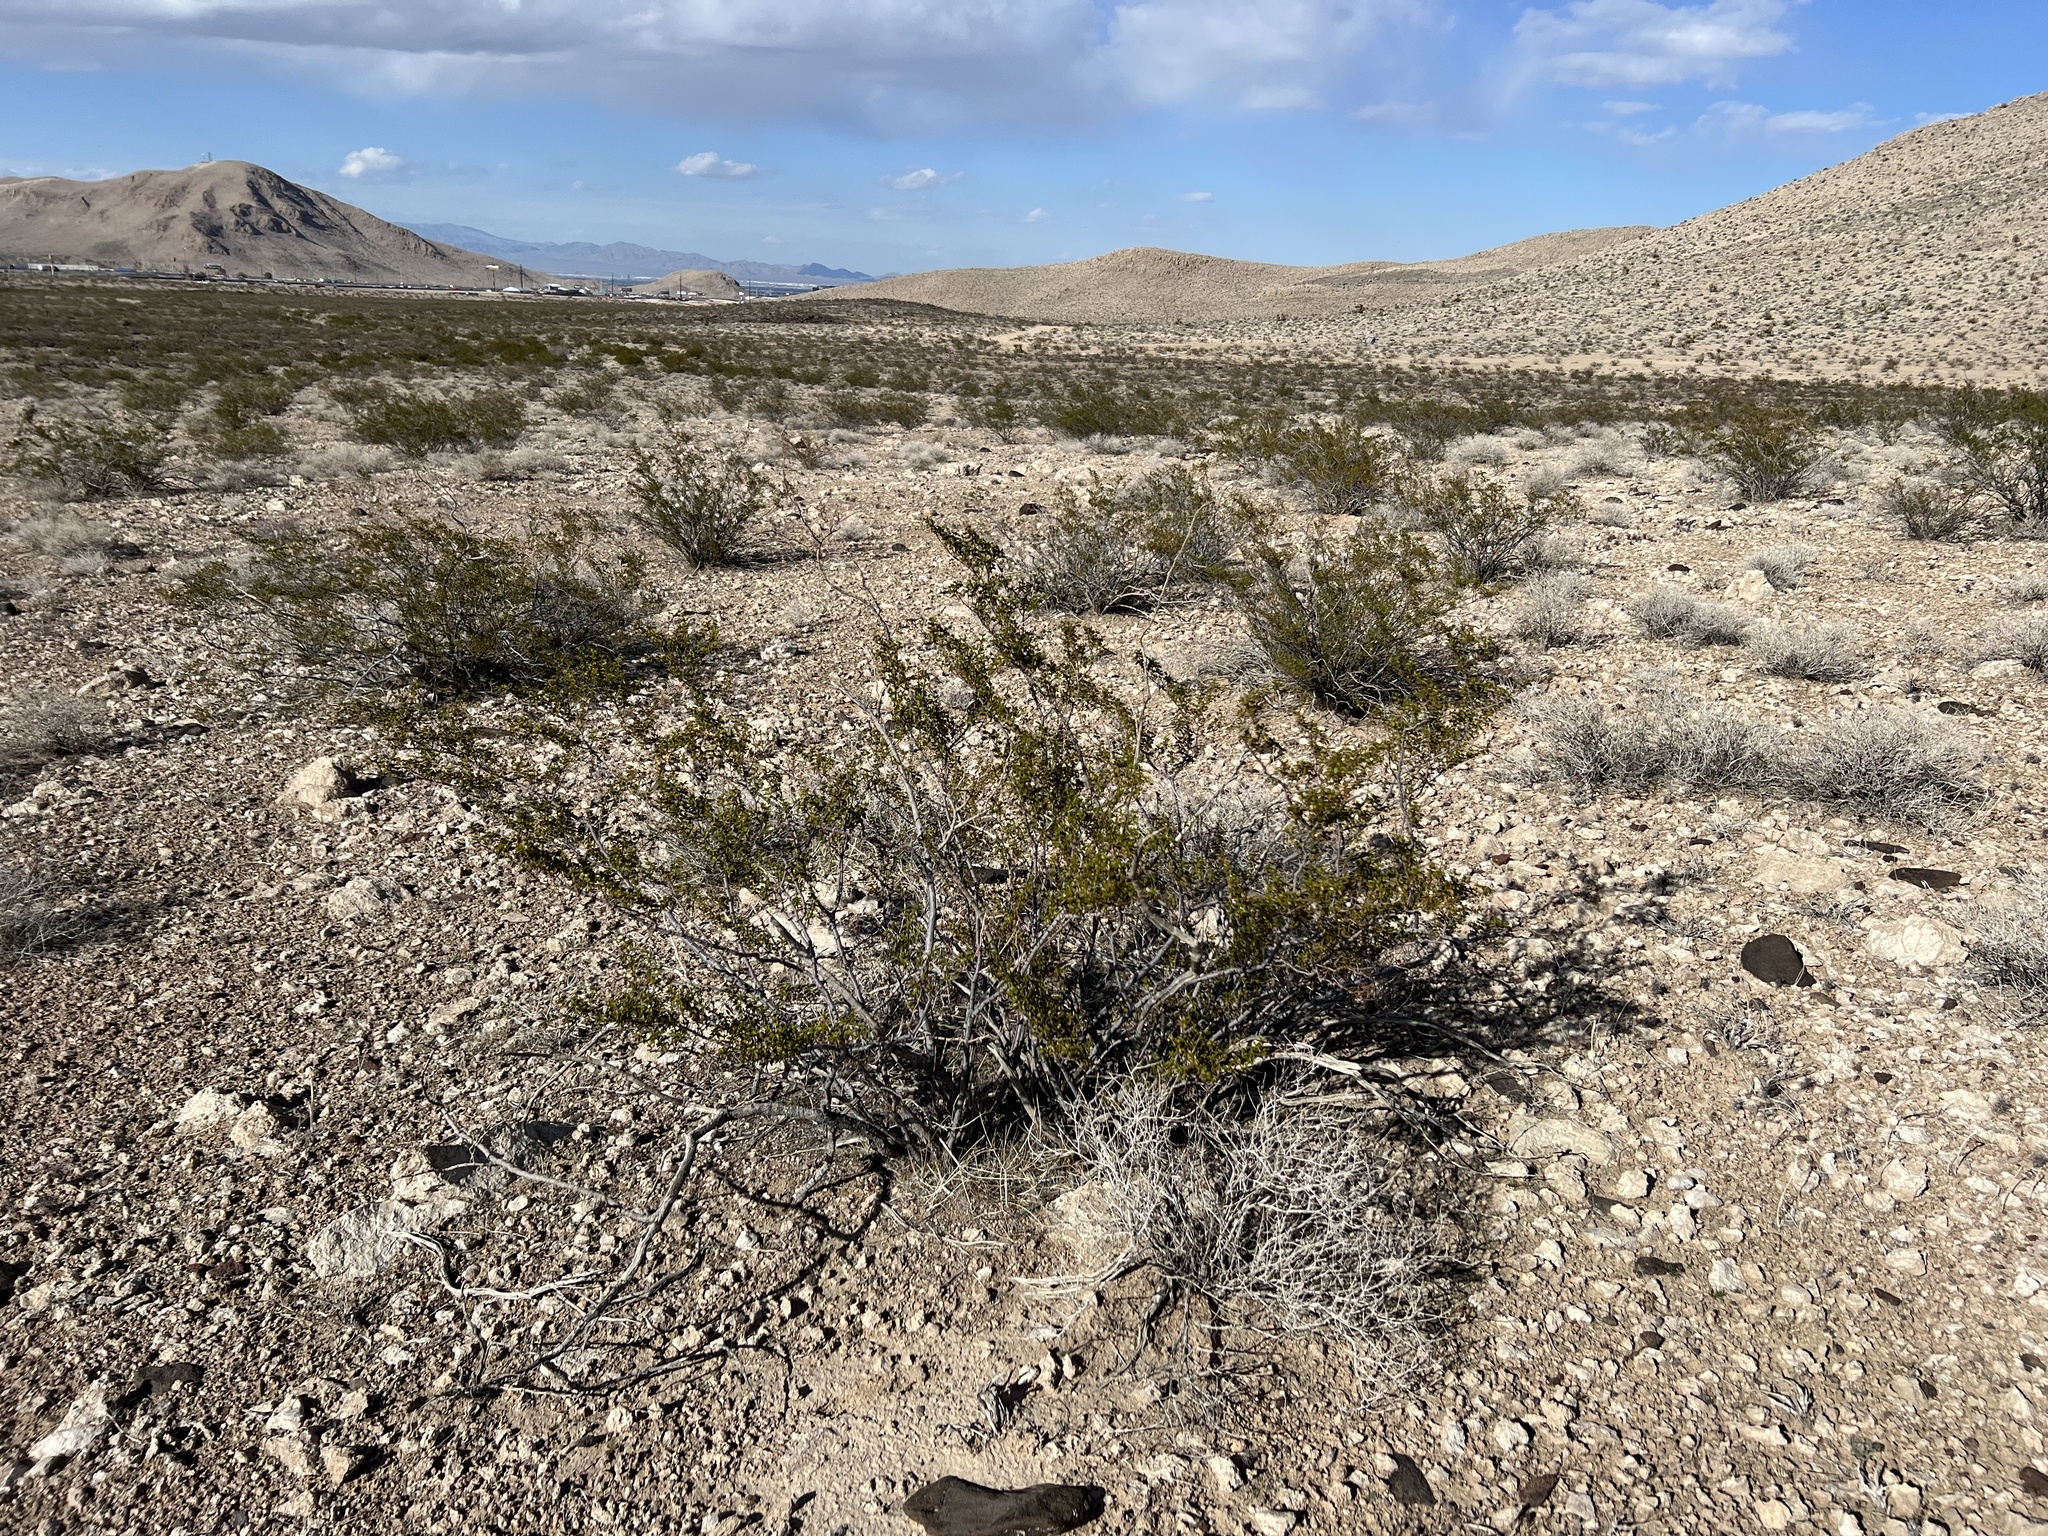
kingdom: Plantae
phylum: Tracheophyta
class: Magnoliopsida
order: Zygophyllales
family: Zygophyllaceae
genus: Larrea
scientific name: Larrea tridentata
